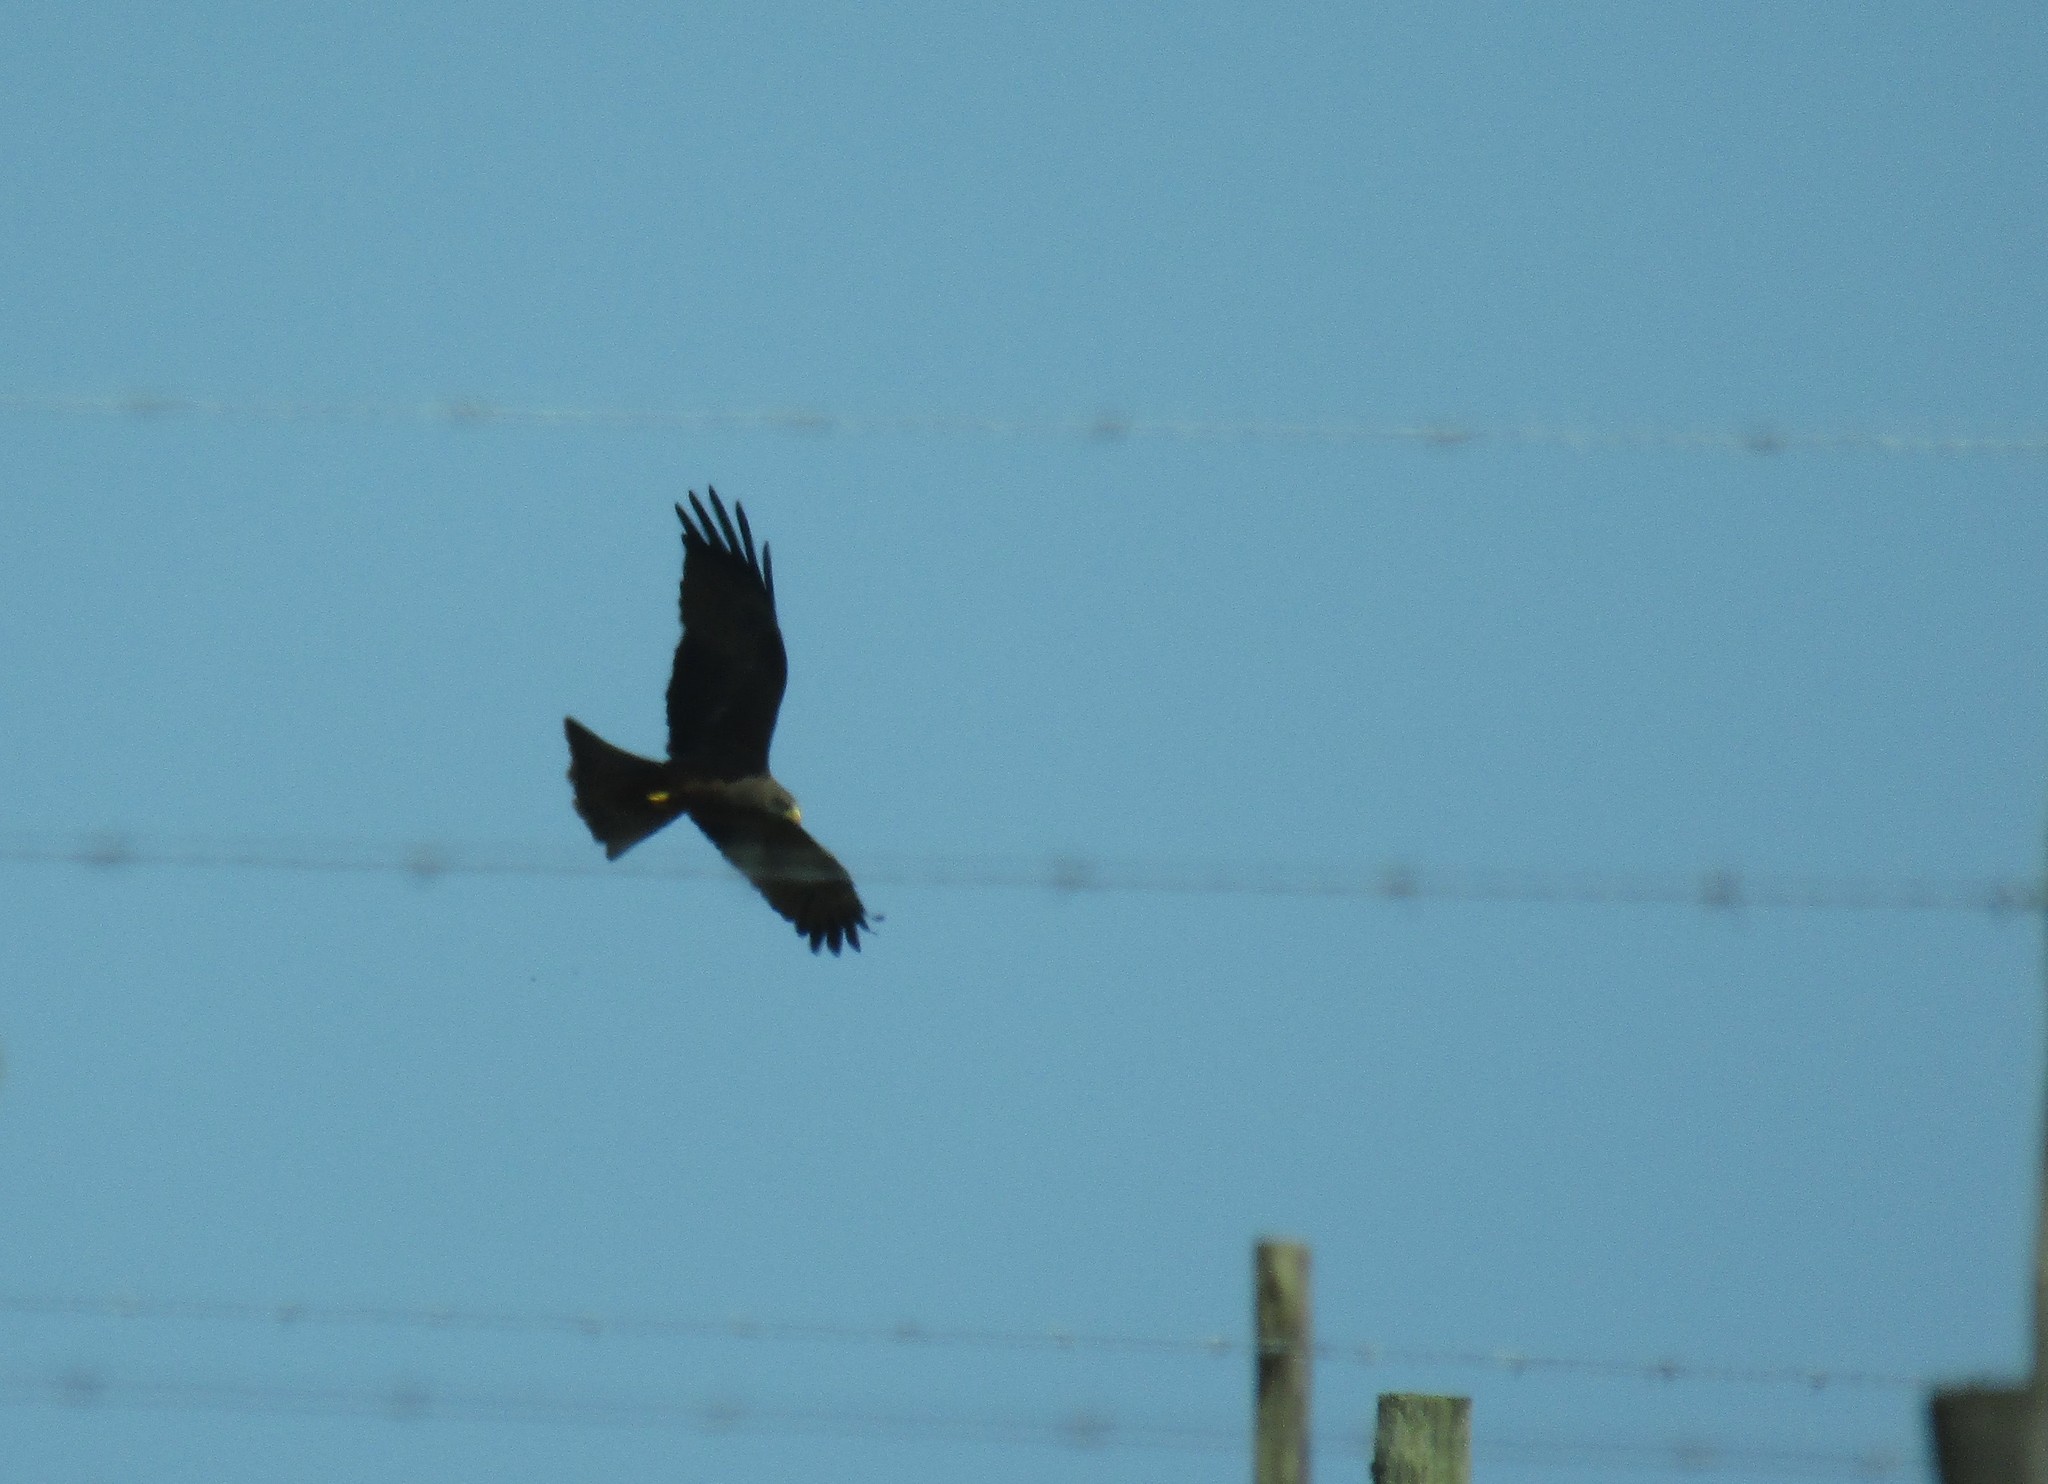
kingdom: Animalia
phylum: Chordata
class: Aves
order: Accipitriformes
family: Accipitridae
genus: Milvus
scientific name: Milvus migrans
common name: Black kite
